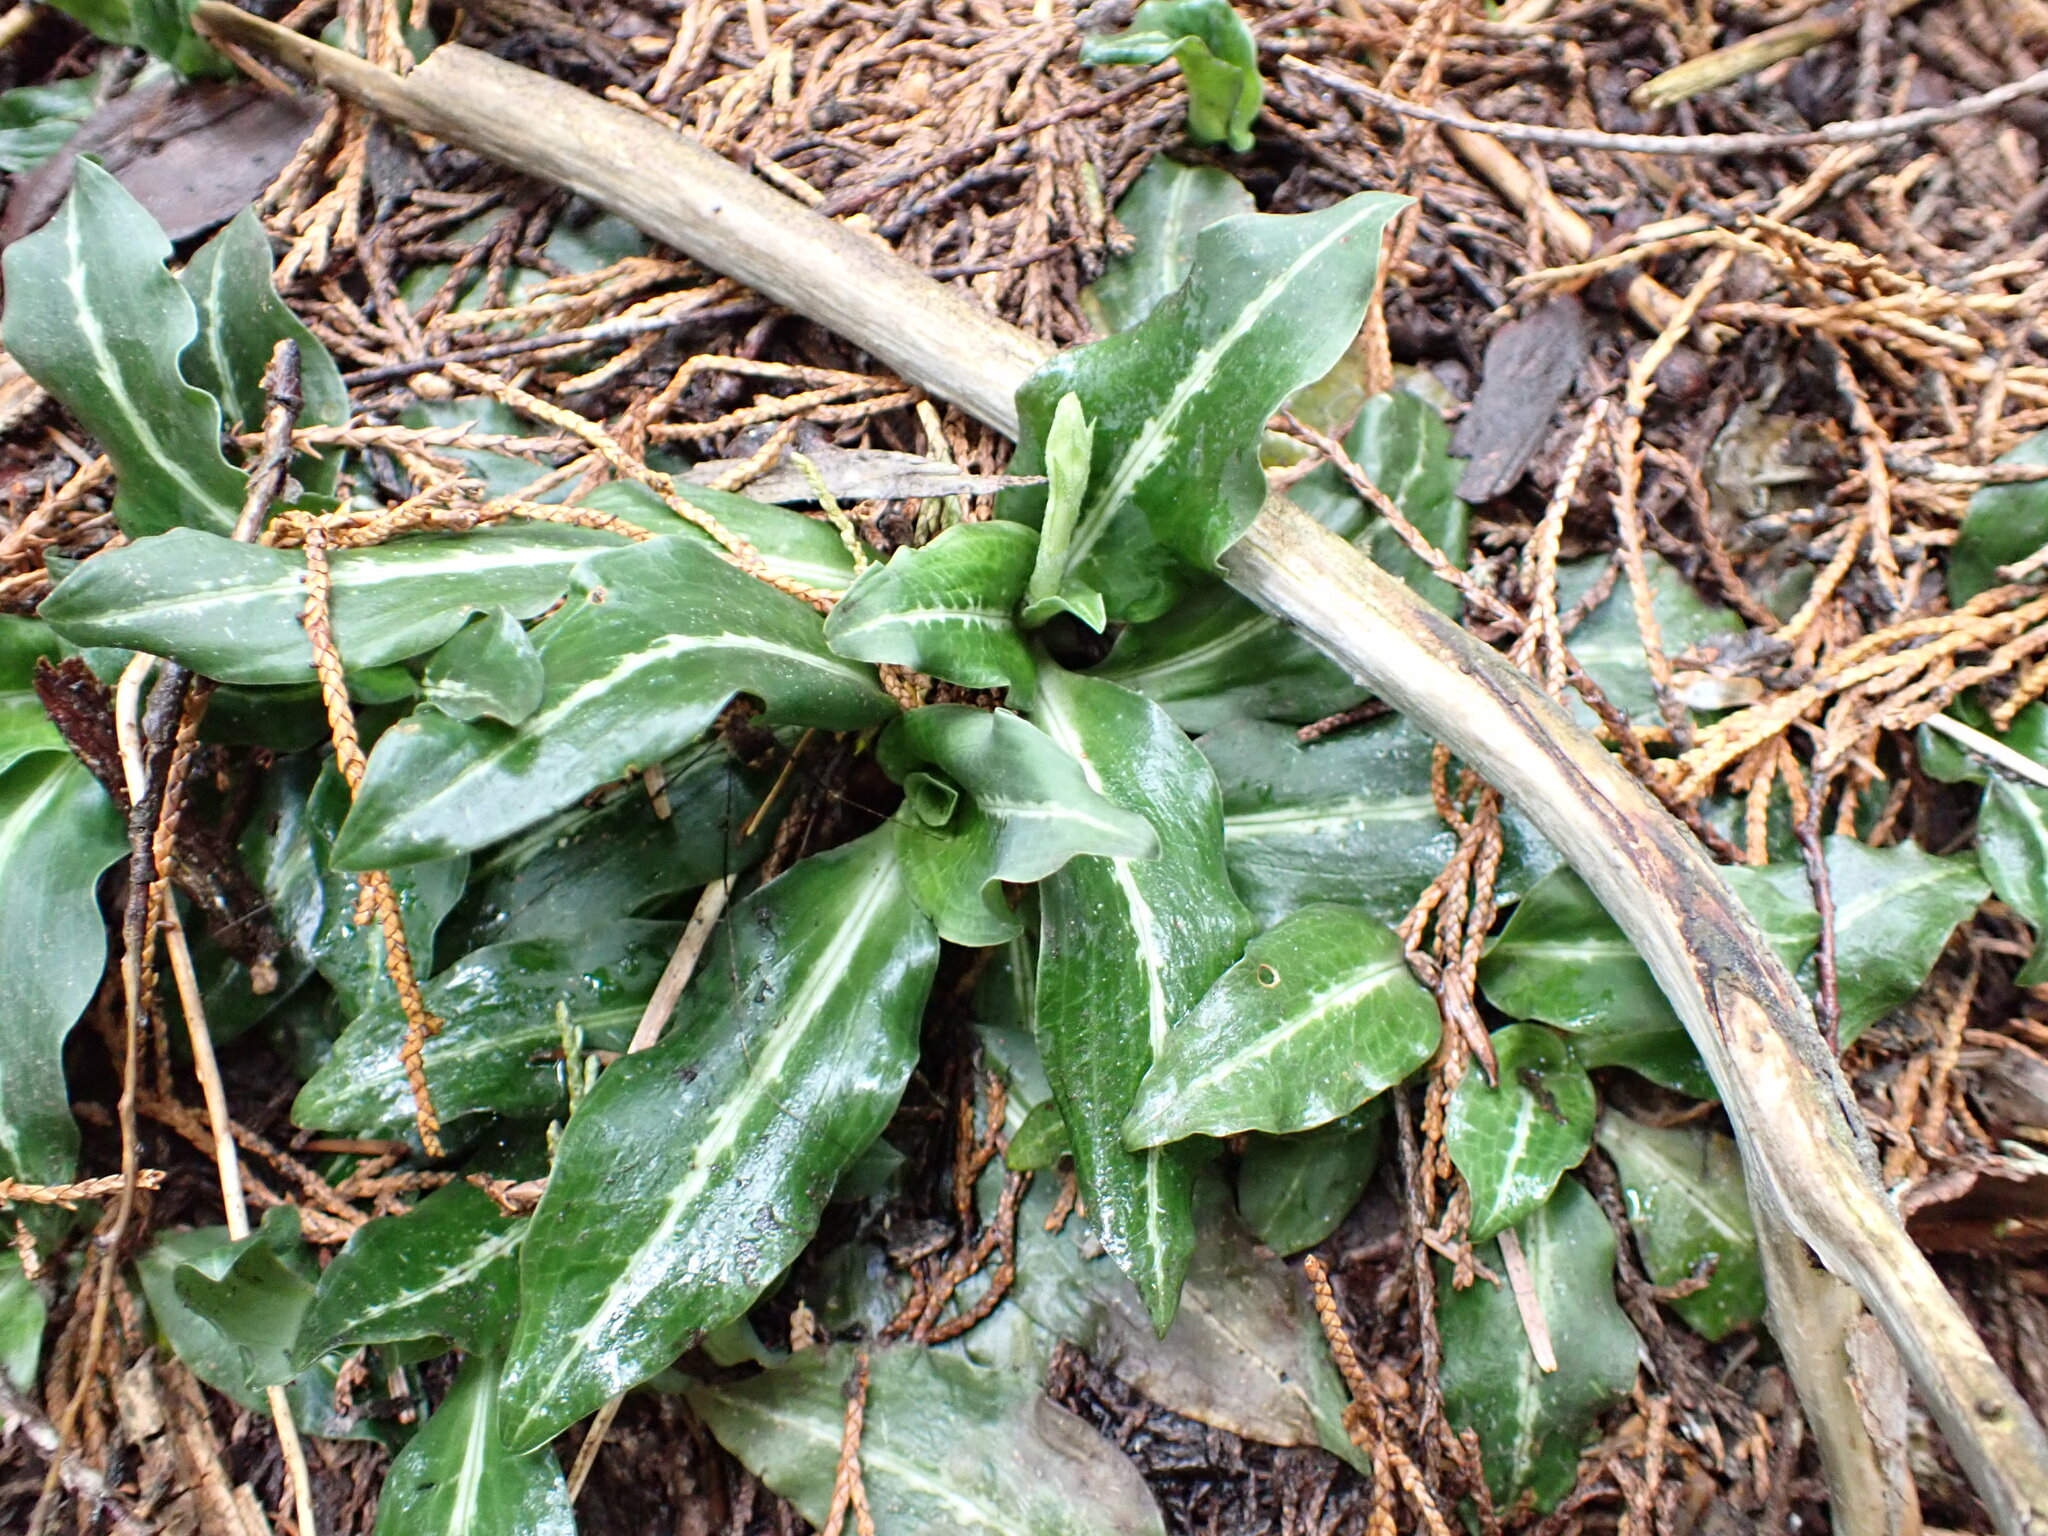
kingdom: Plantae
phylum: Tracheophyta
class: Liliopsida
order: Asparagales
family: Orchidaceae
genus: Goodyera
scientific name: Goodyera oblongifolia
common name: Giant rattlesnake-plantain
